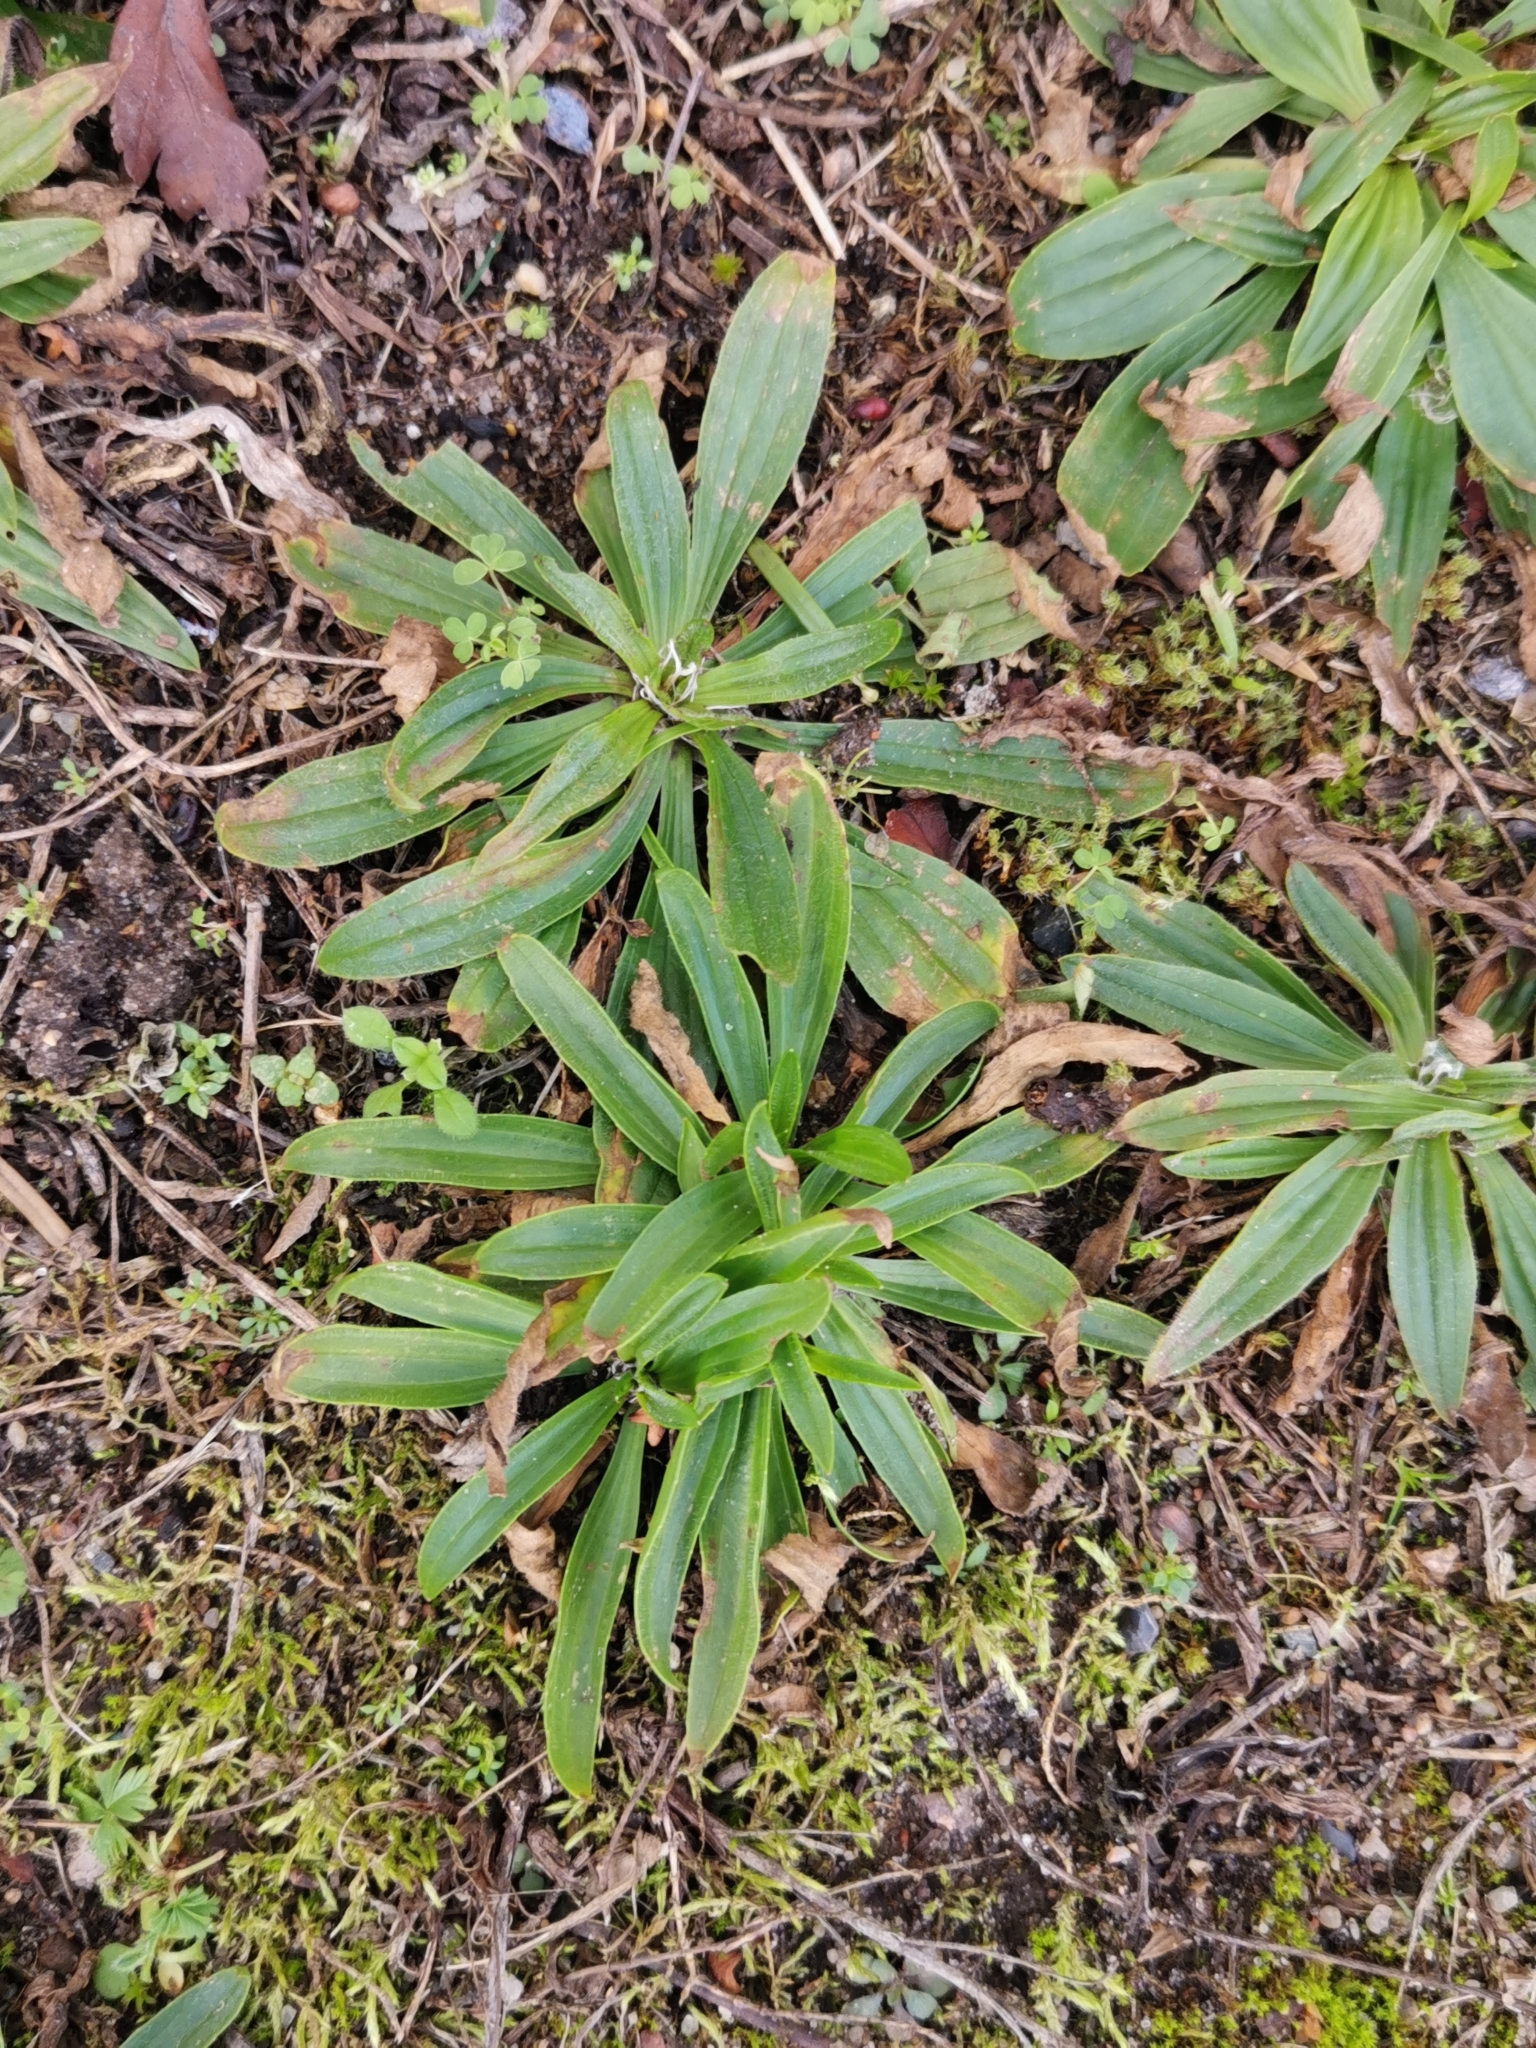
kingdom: Plantae
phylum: Tracheophyta
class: Magnoliopsida
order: Lamiales
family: Plantaginaceae
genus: Plantago
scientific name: Plantago lanceolata
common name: Ribwort plantain
